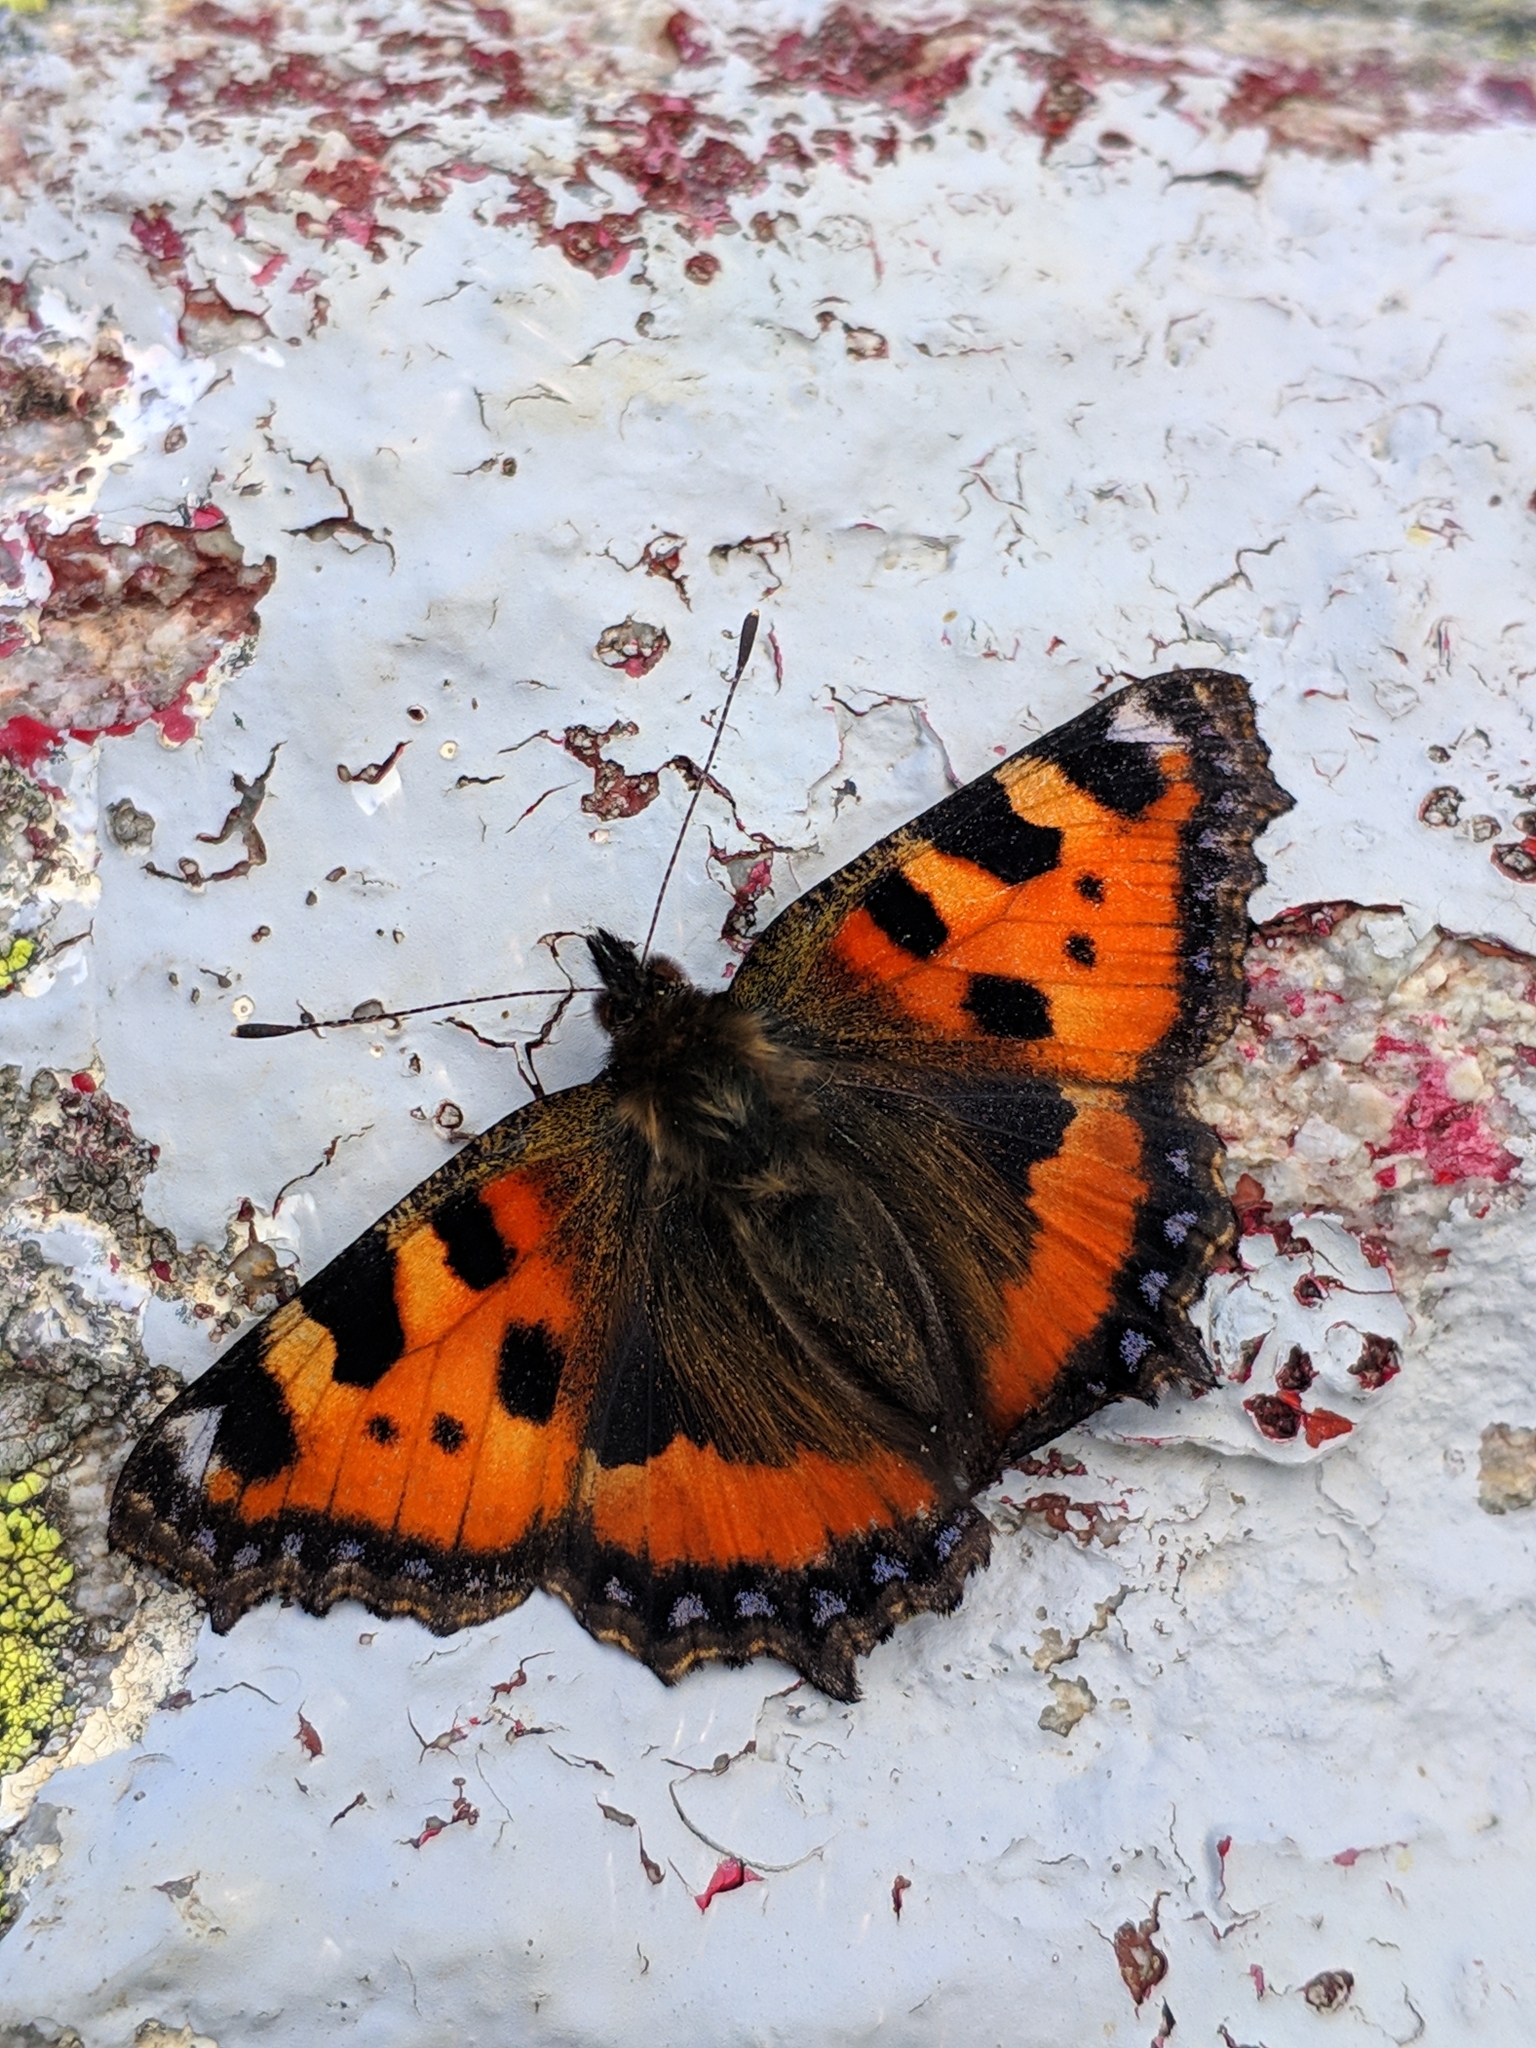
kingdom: Animalia
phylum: Arthropoda
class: Insecta
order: Lepidoptera
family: Nymphalidae
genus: Aglais
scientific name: Aglais urticae
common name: Small tortoiseshell
